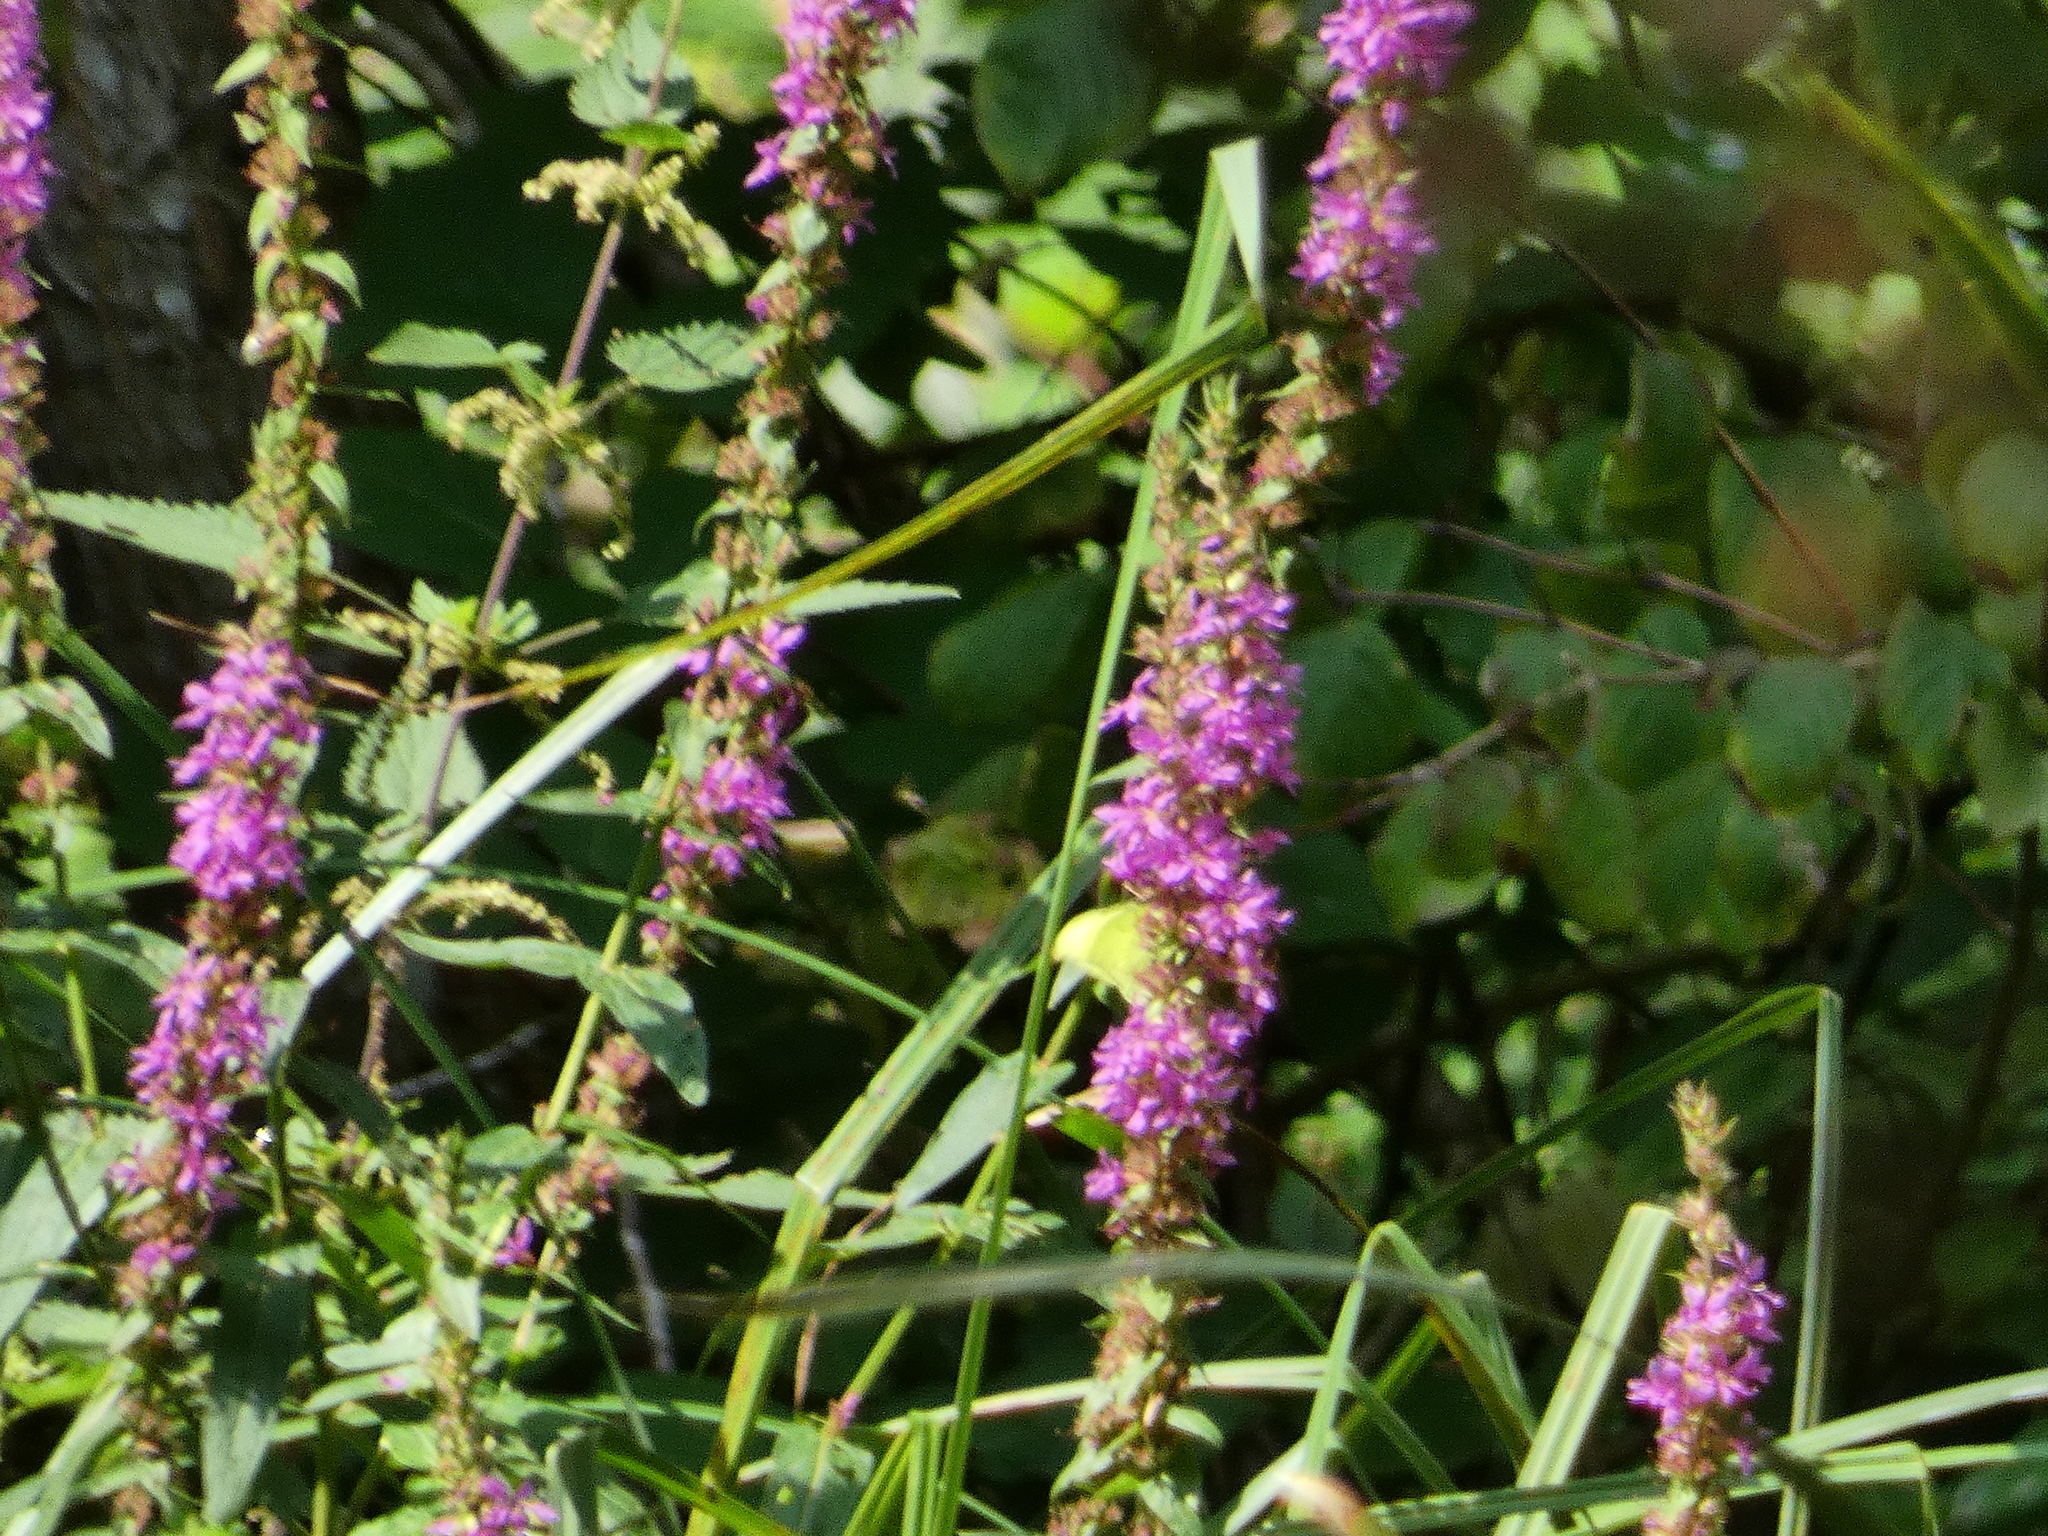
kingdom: Animalia
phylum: Arthropoda
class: Insecta
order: Lepidoptera
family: Pieridae
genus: Gonepteryx
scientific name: Gonepteryx rhamni
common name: Brimstone
